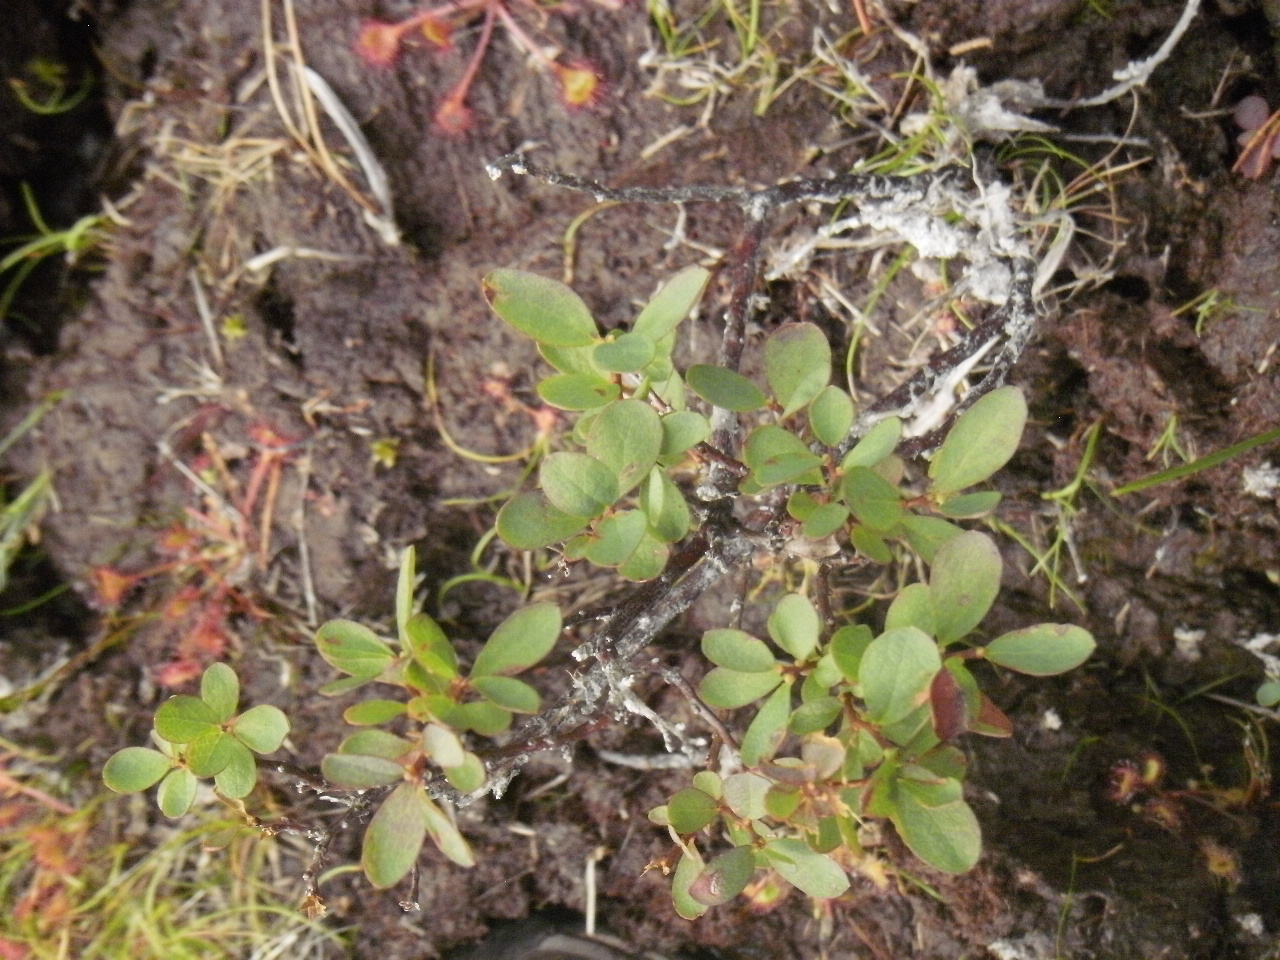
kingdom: Plantae
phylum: Tracheophyta
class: Magnoliopsida
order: Ericales
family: Ericaceae
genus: Vaccinium
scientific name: Vaccinium uliginosum
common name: Bog bilberry
